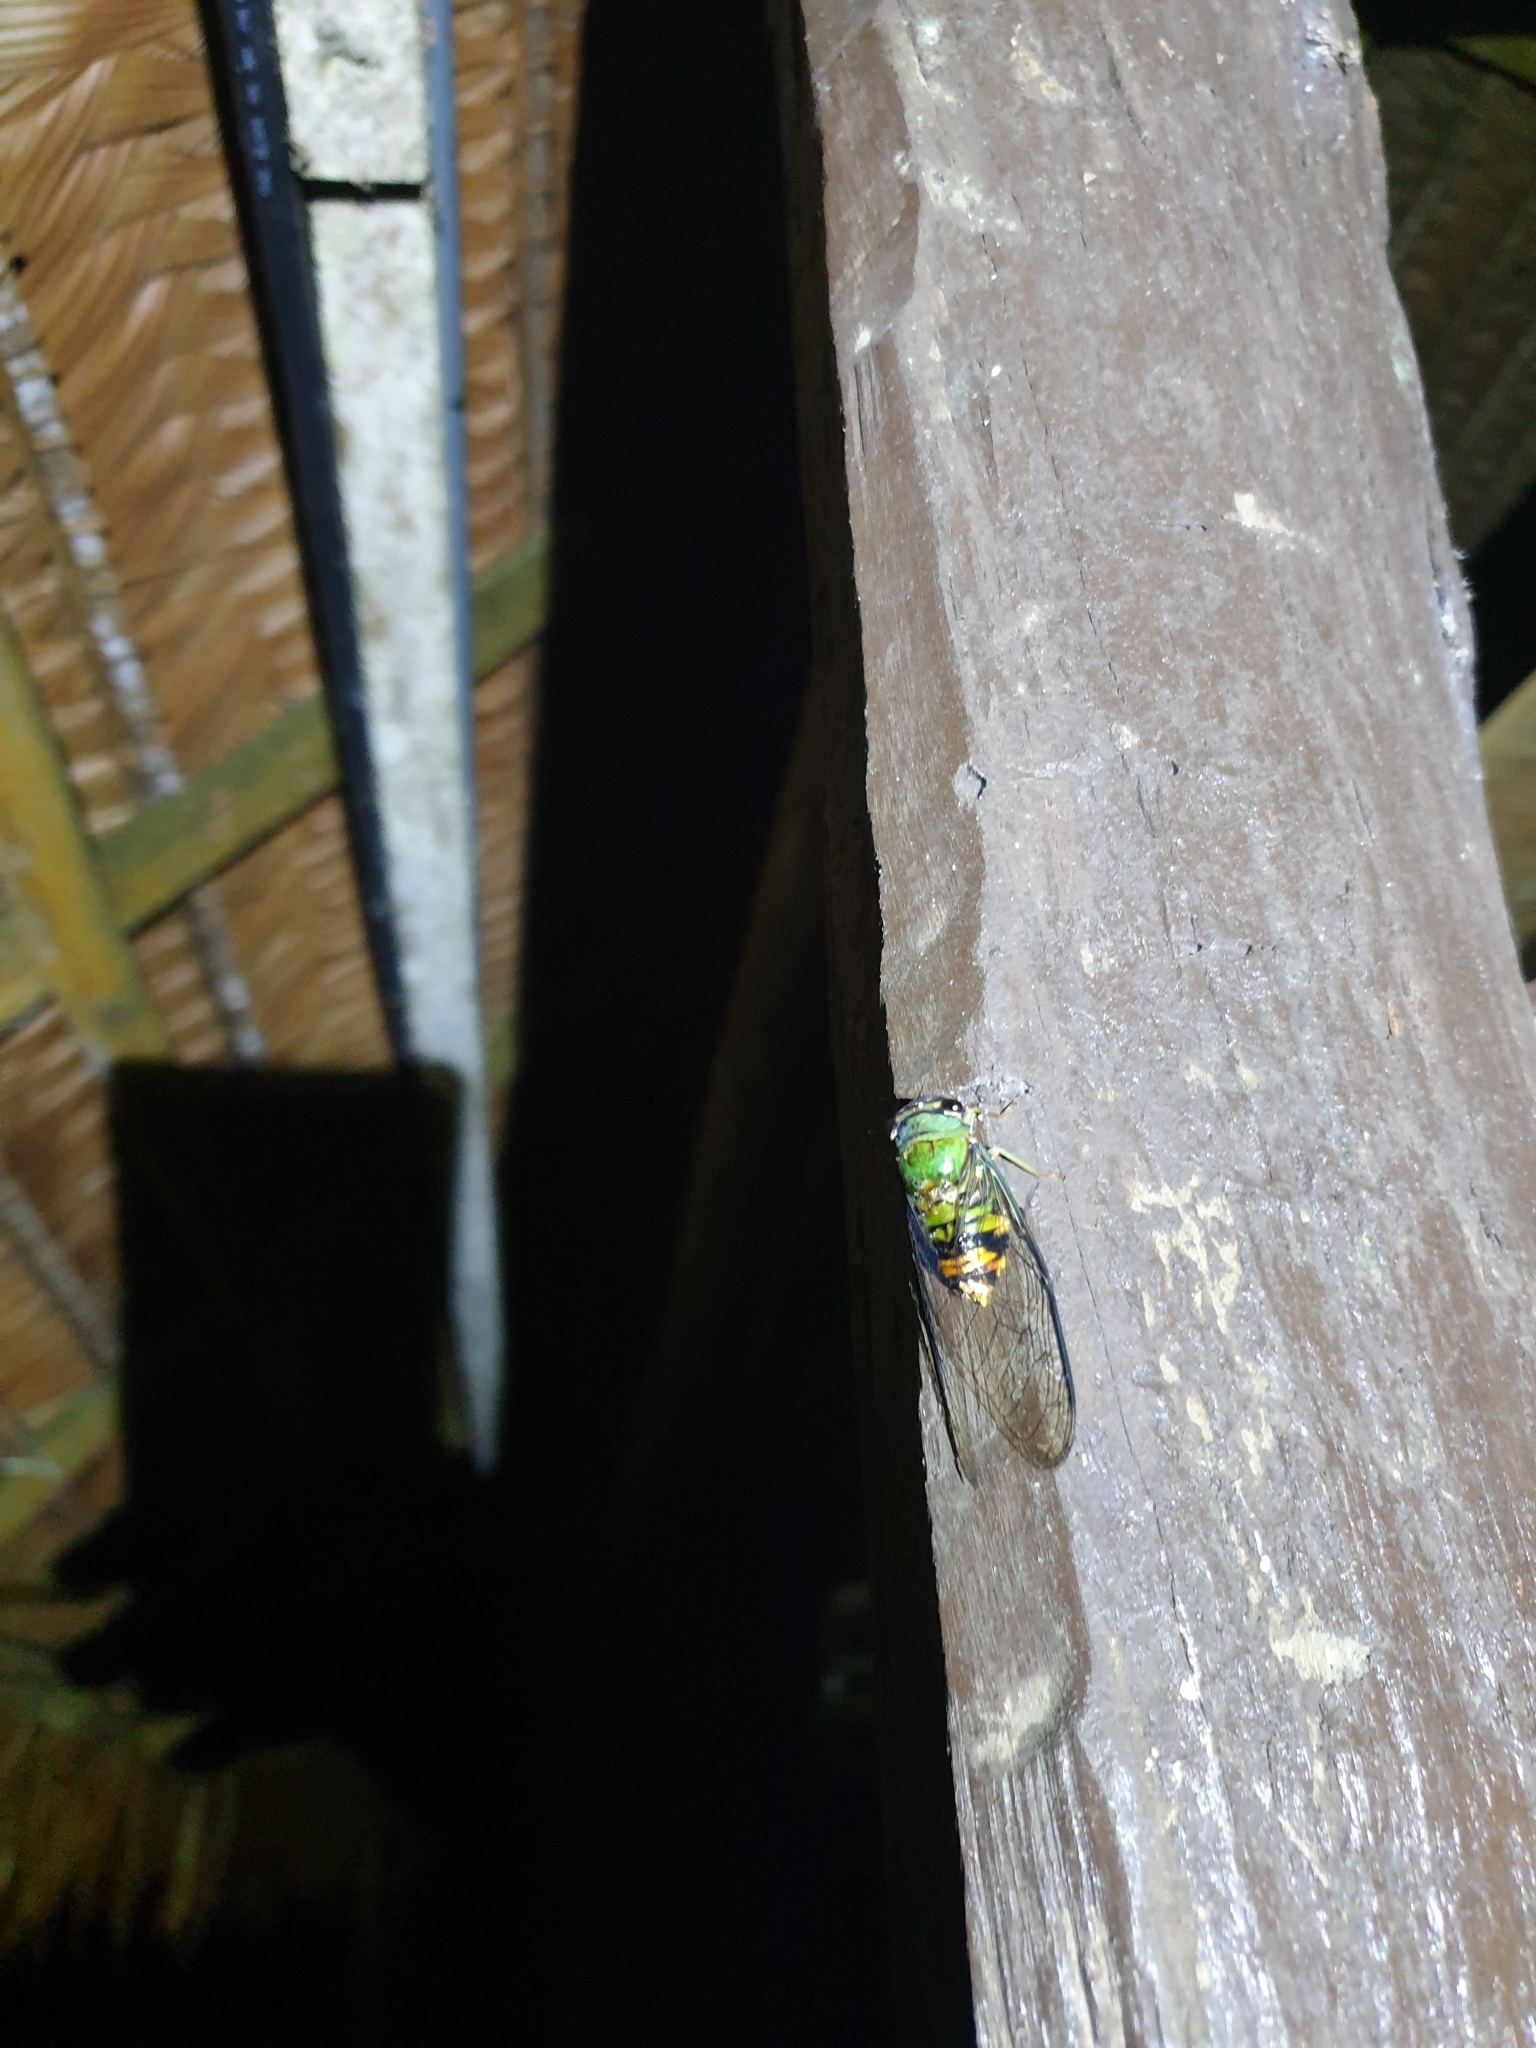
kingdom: Animalia
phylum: Arthropoda
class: Insecta
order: Hemiptera
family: Cicadidae
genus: Guyalna
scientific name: Guyalna distanti
